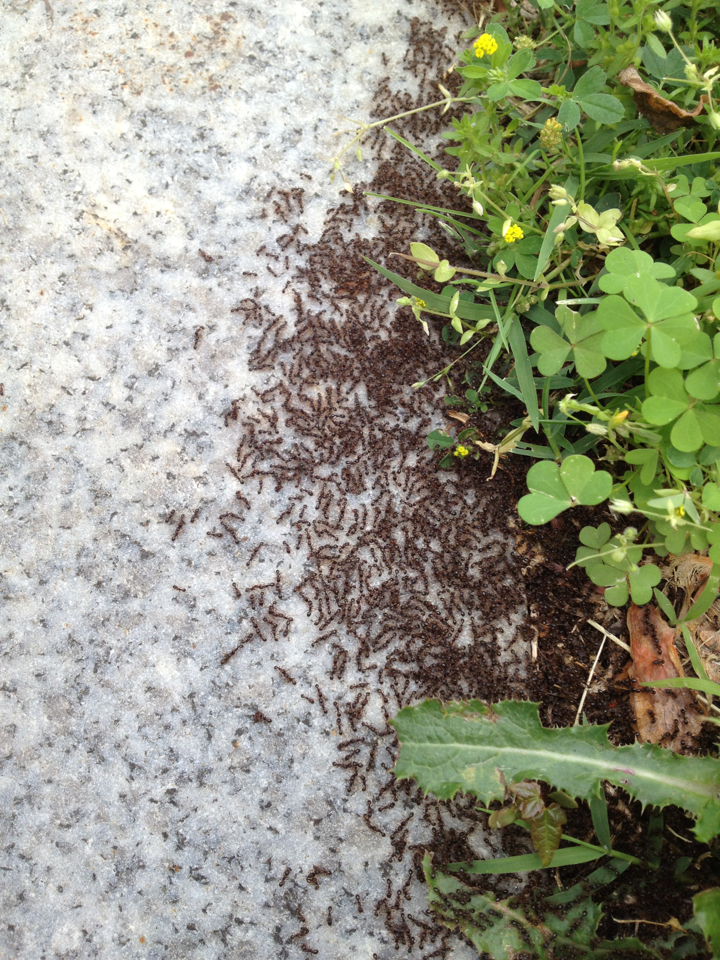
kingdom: Animalia
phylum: Arthropoda
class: Insecta
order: Hymenoptera
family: Formicidae
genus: Tetramorium
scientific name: Tetramorium immigrans
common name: Pavement ant
